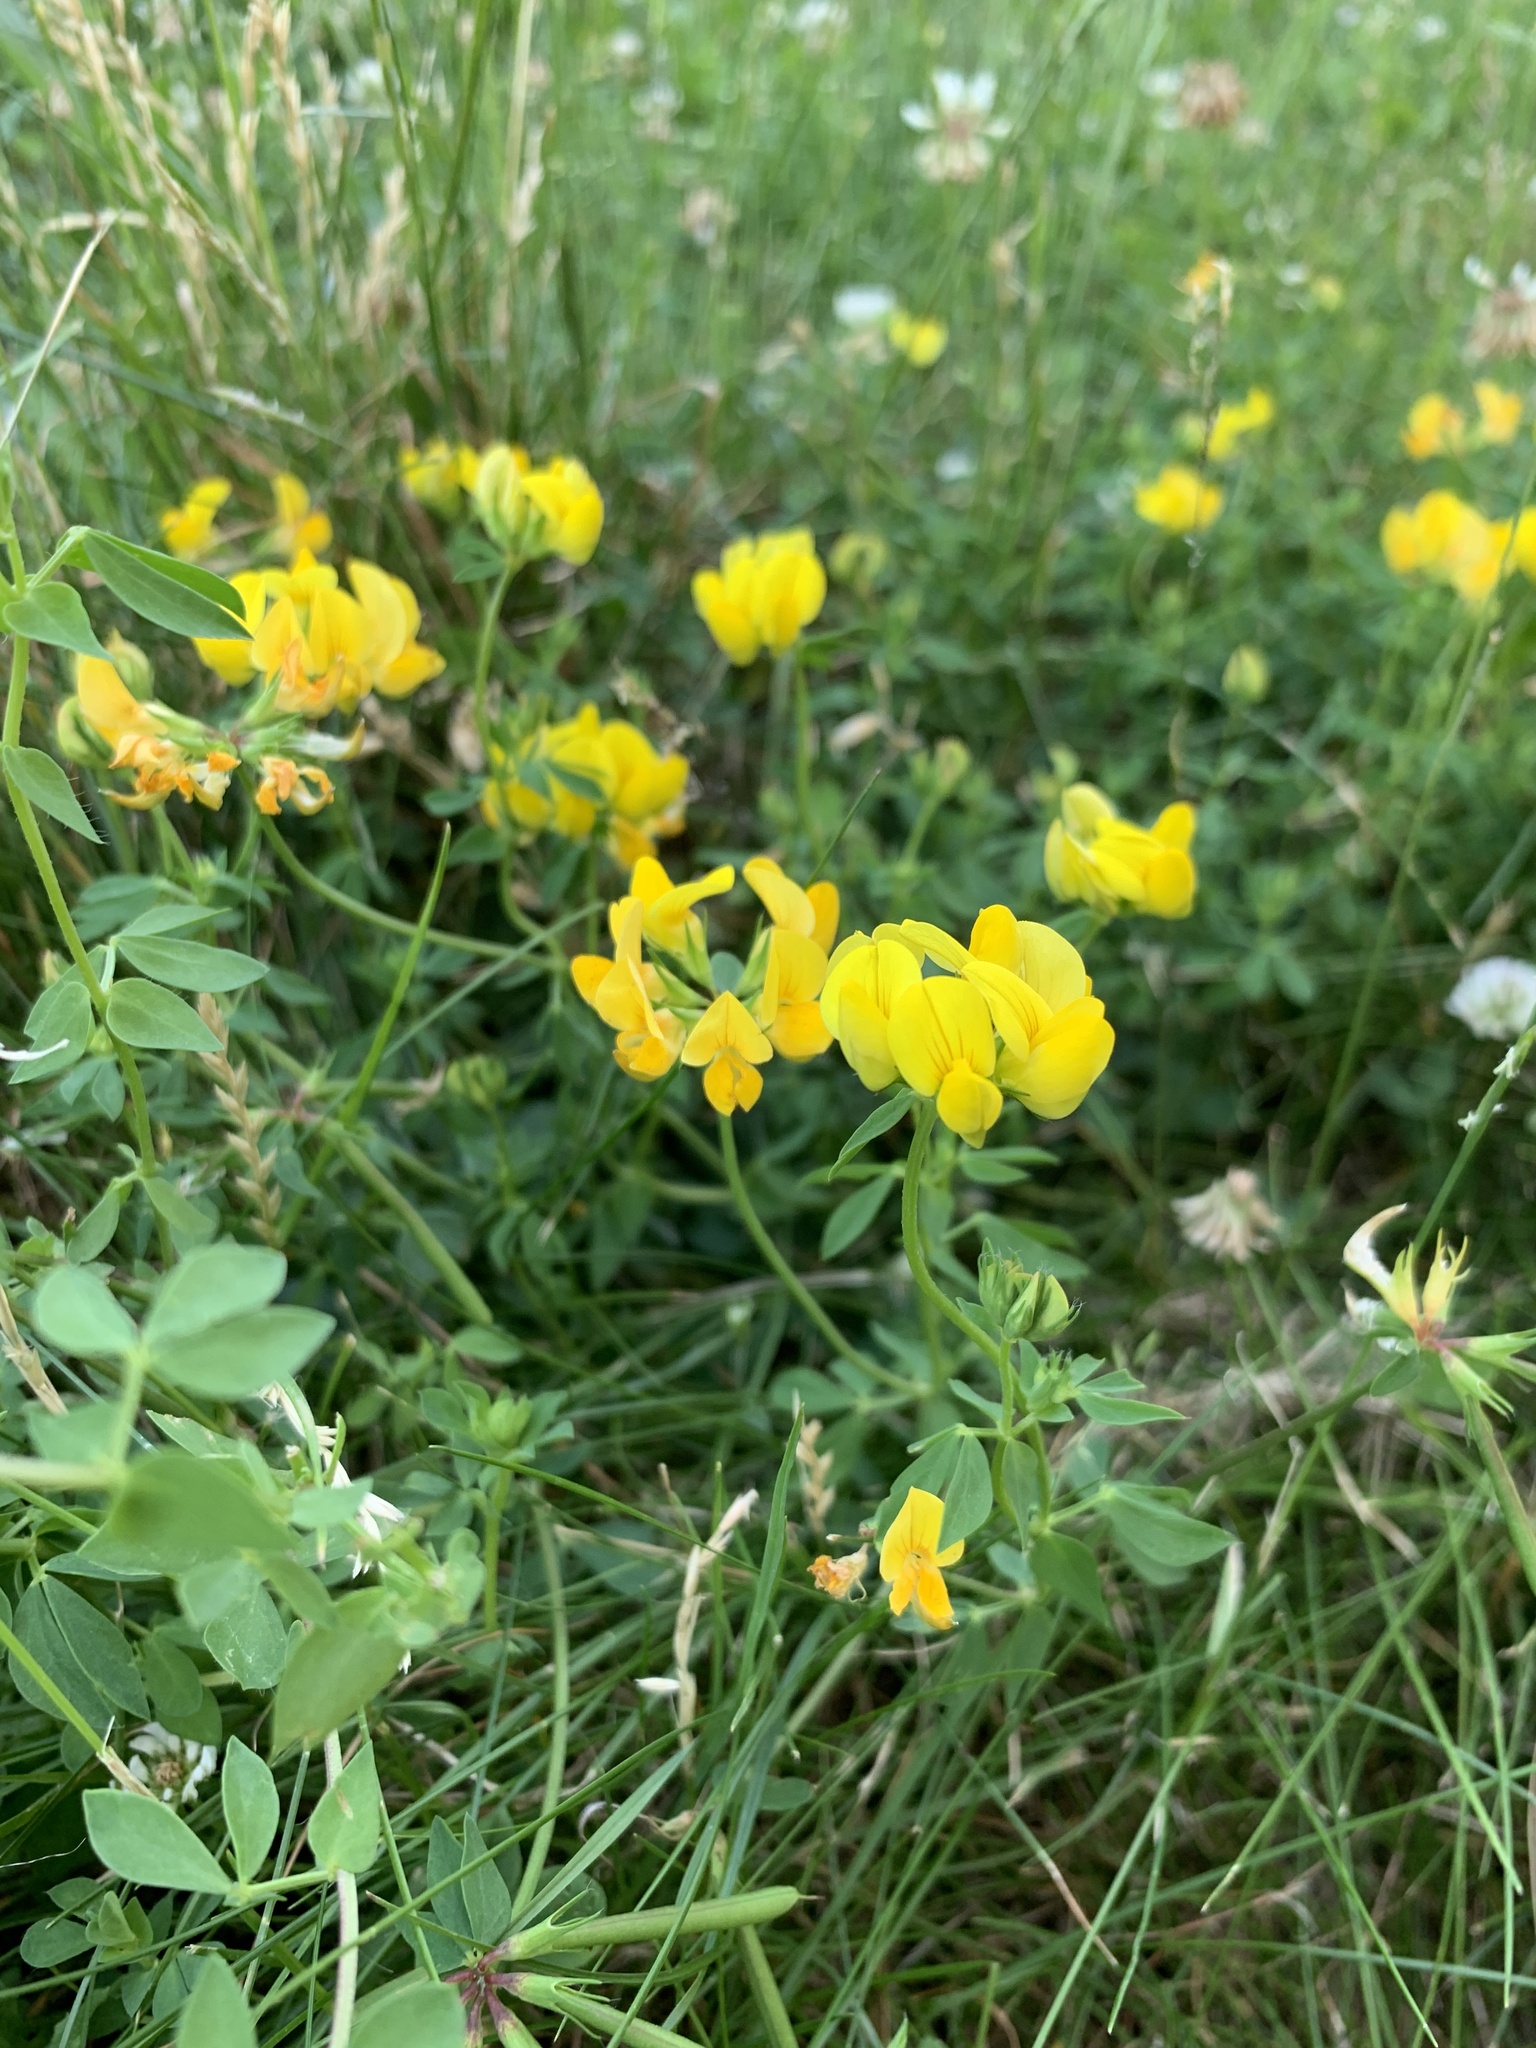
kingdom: Plantae
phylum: Tracheophyta
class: Magnoliopsida
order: Fabales
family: Fabaceae
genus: Lotus
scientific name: Lotus corniculatus
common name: Common bird's-foot-trefoil
